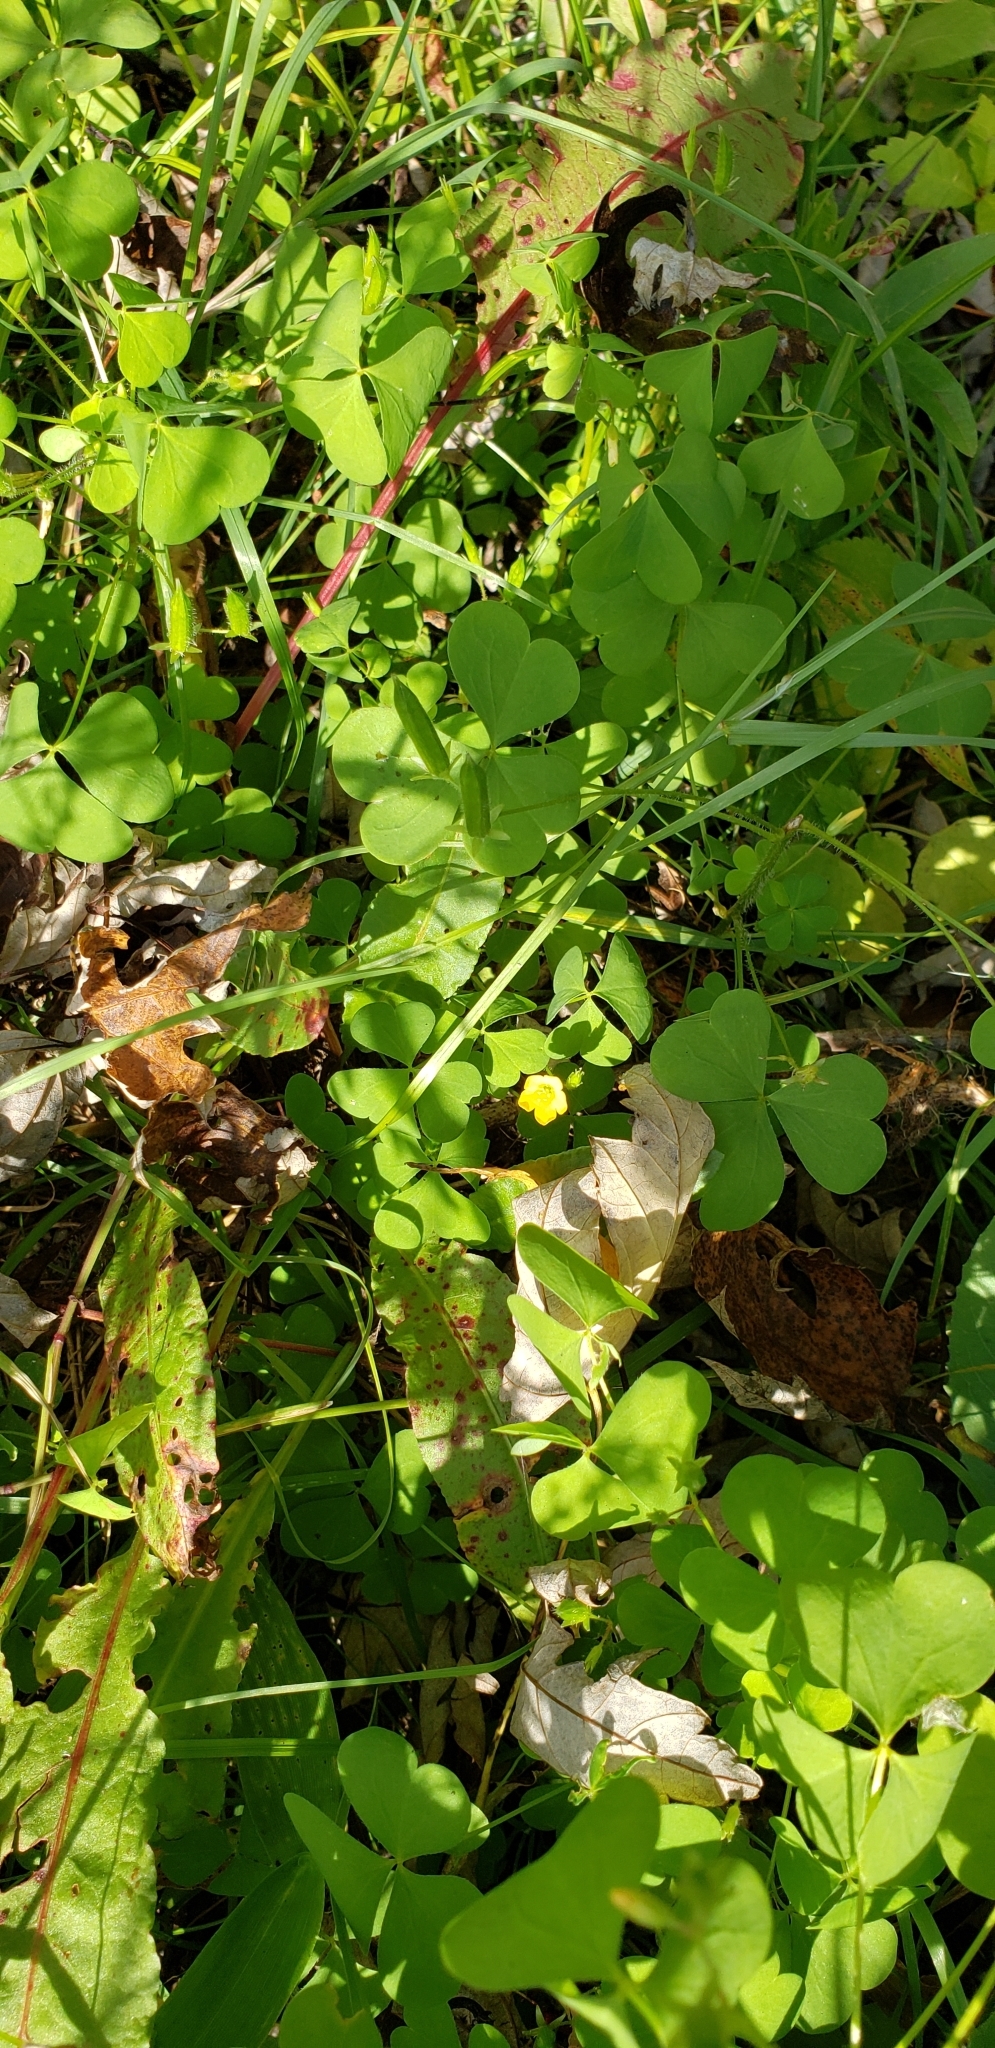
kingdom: Plantae
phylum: Tracheophyta
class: Magnoliopsida
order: Oxalidales
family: Oxalidaceae
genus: Oxalis
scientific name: Oxalis stricta
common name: Upright yellow-sorrel
